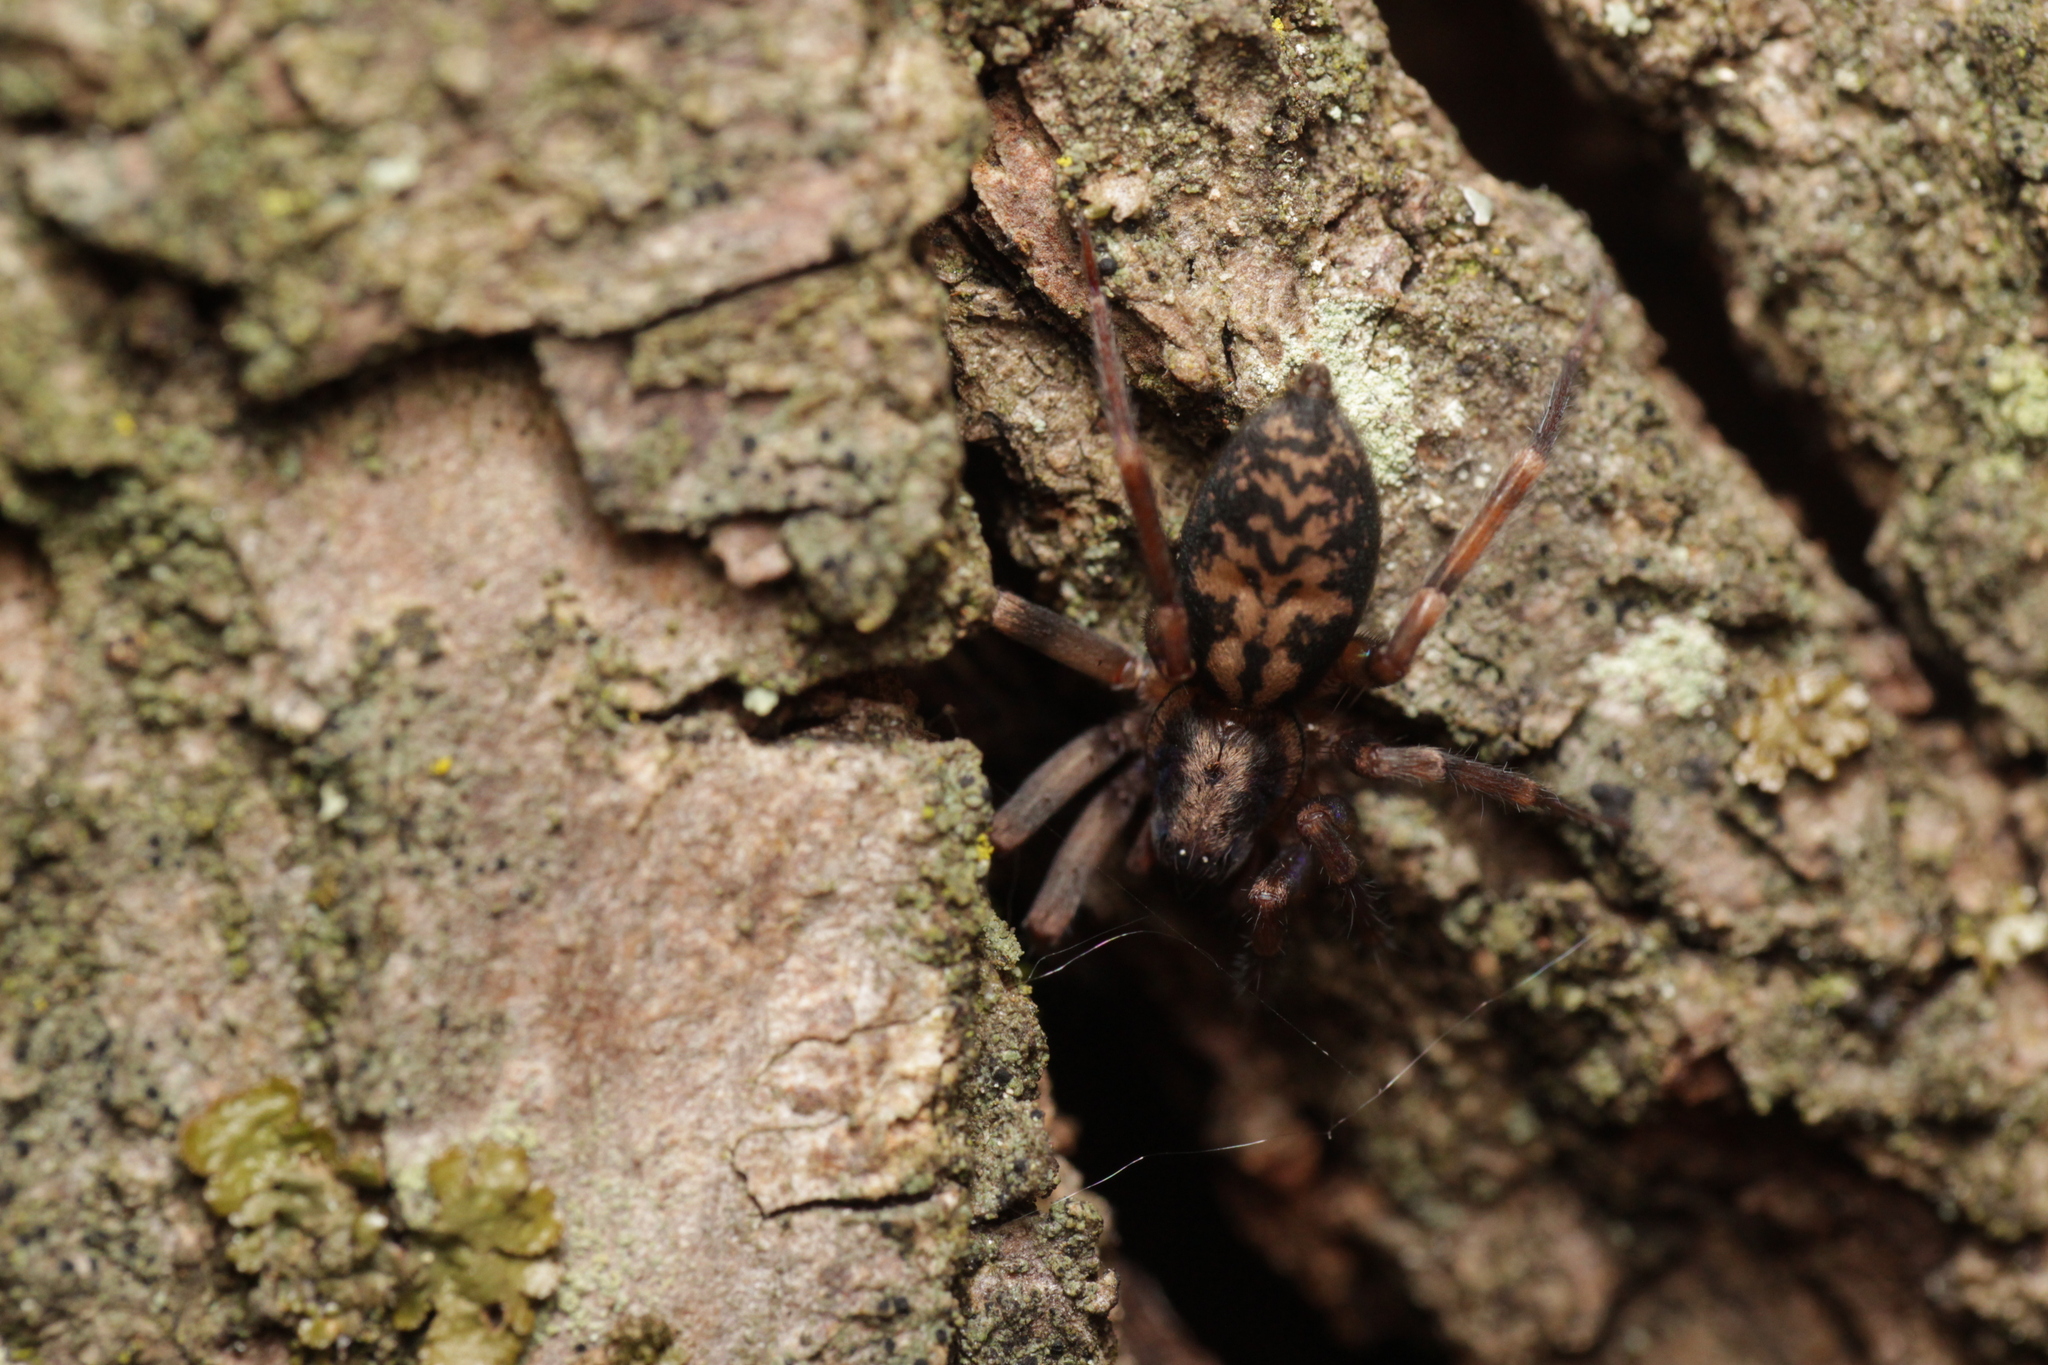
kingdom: Animalia
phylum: Arthropoda
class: Arachnida
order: Araneae
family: Liocranidae
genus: Liocranum
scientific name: Liocranum rupicola
